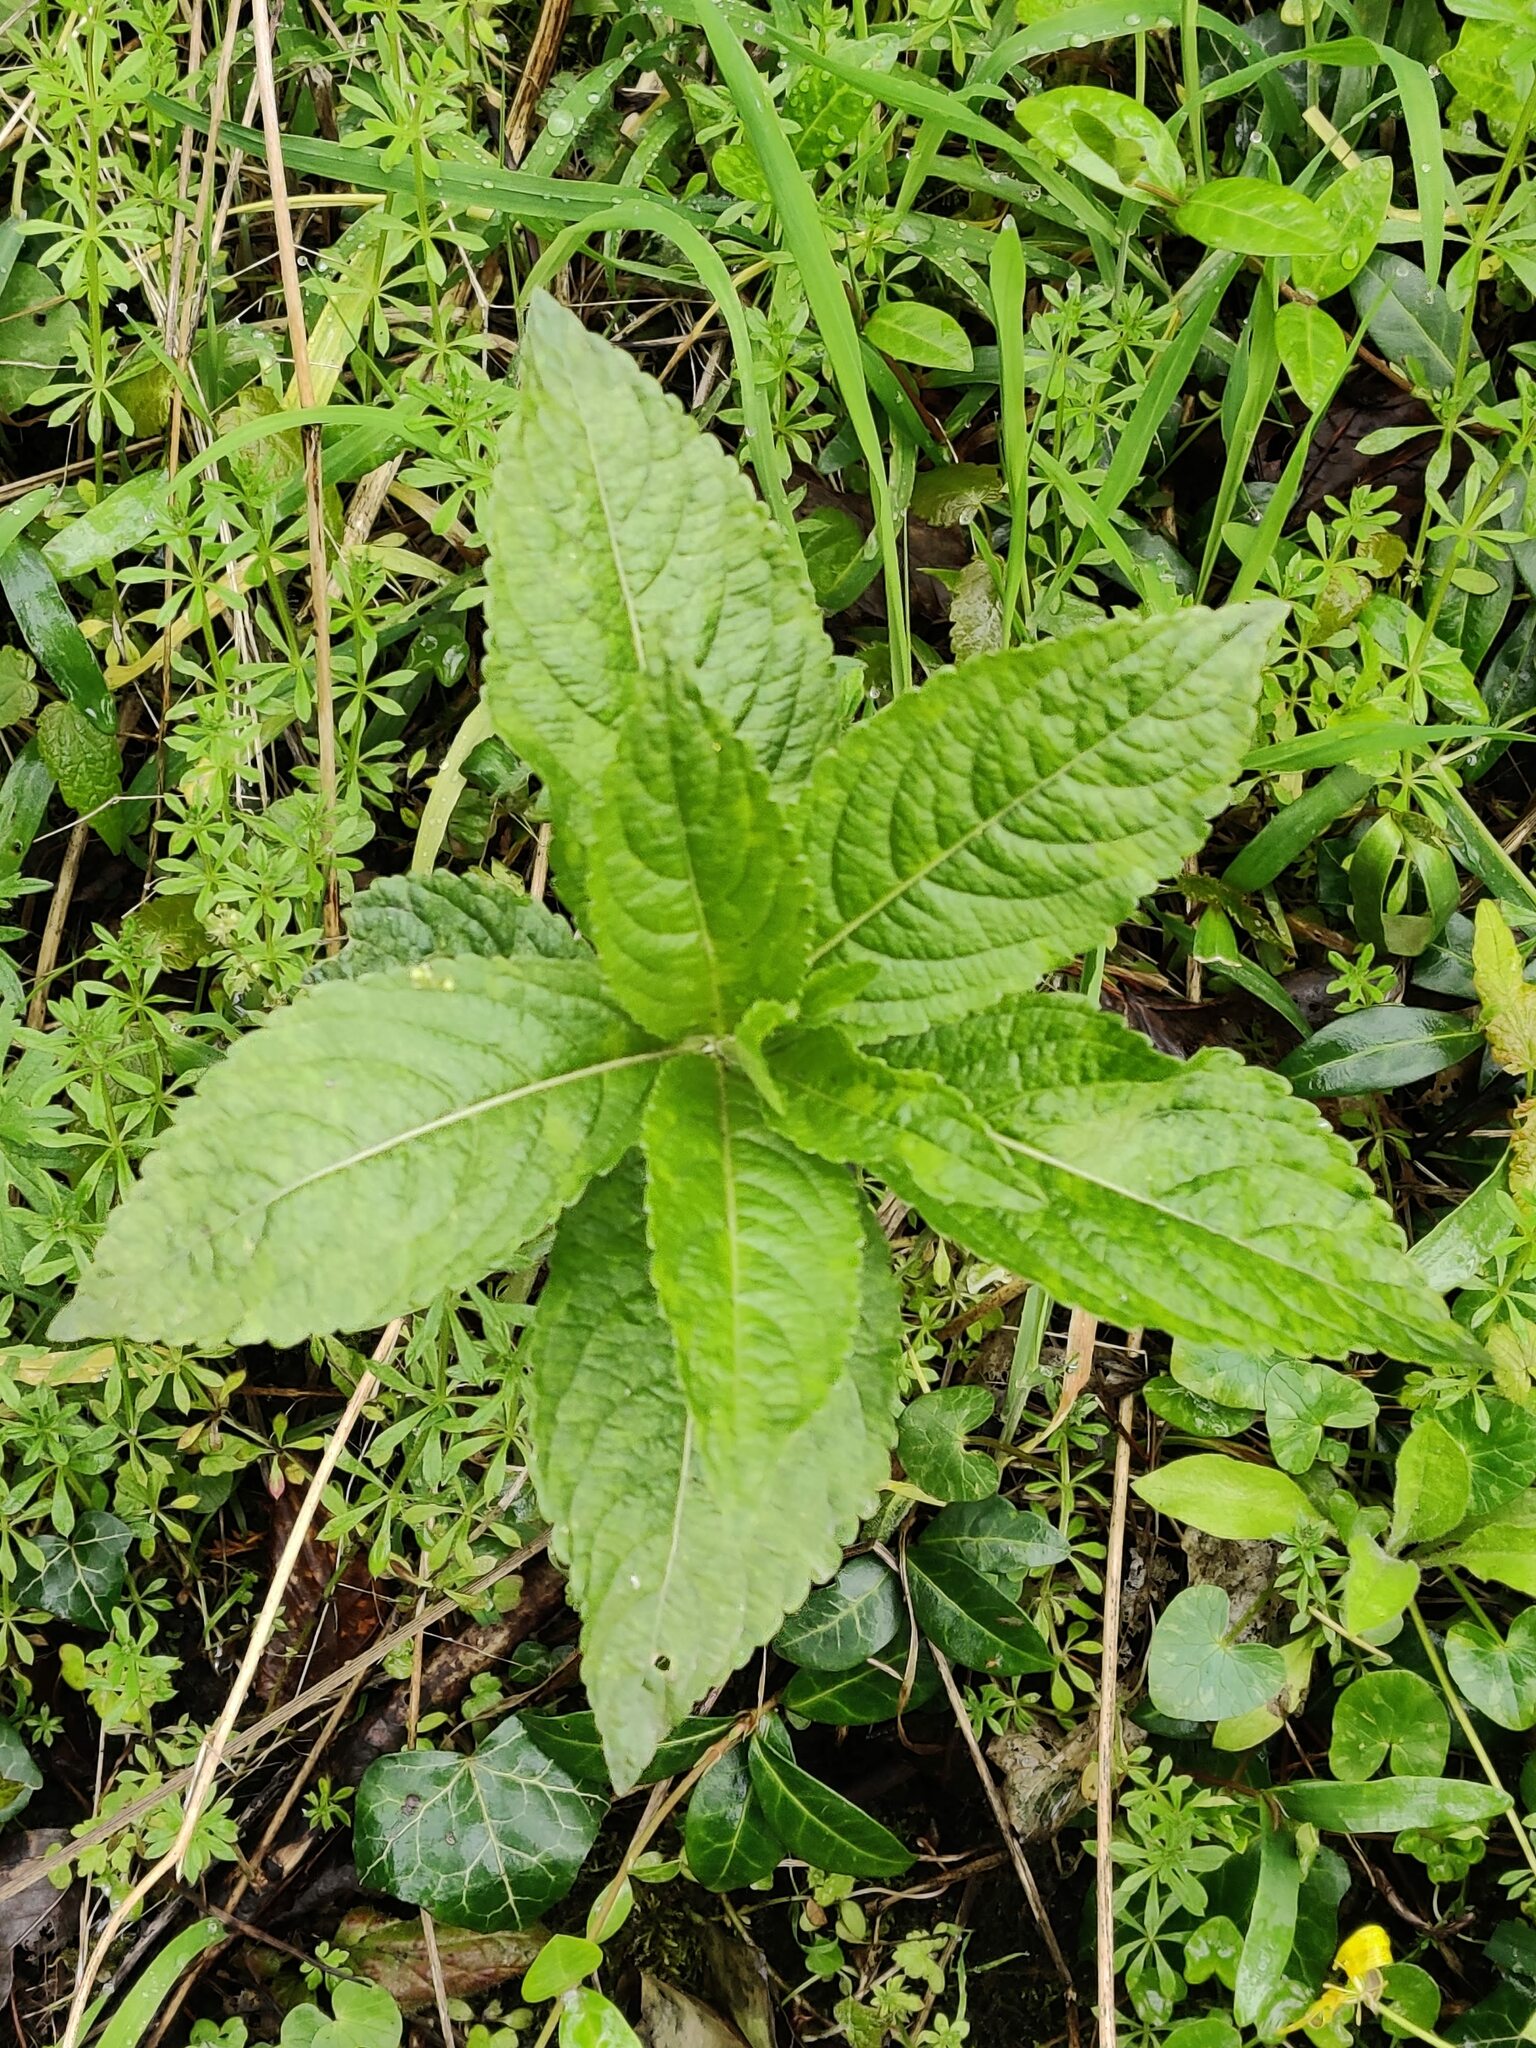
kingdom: Plantae
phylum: Tracheophyta
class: Magnoliopsida
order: Malpighiales
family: Euphorbiaceae
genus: Mercurialis
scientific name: Mercurialis perennis
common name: Dog mercury
